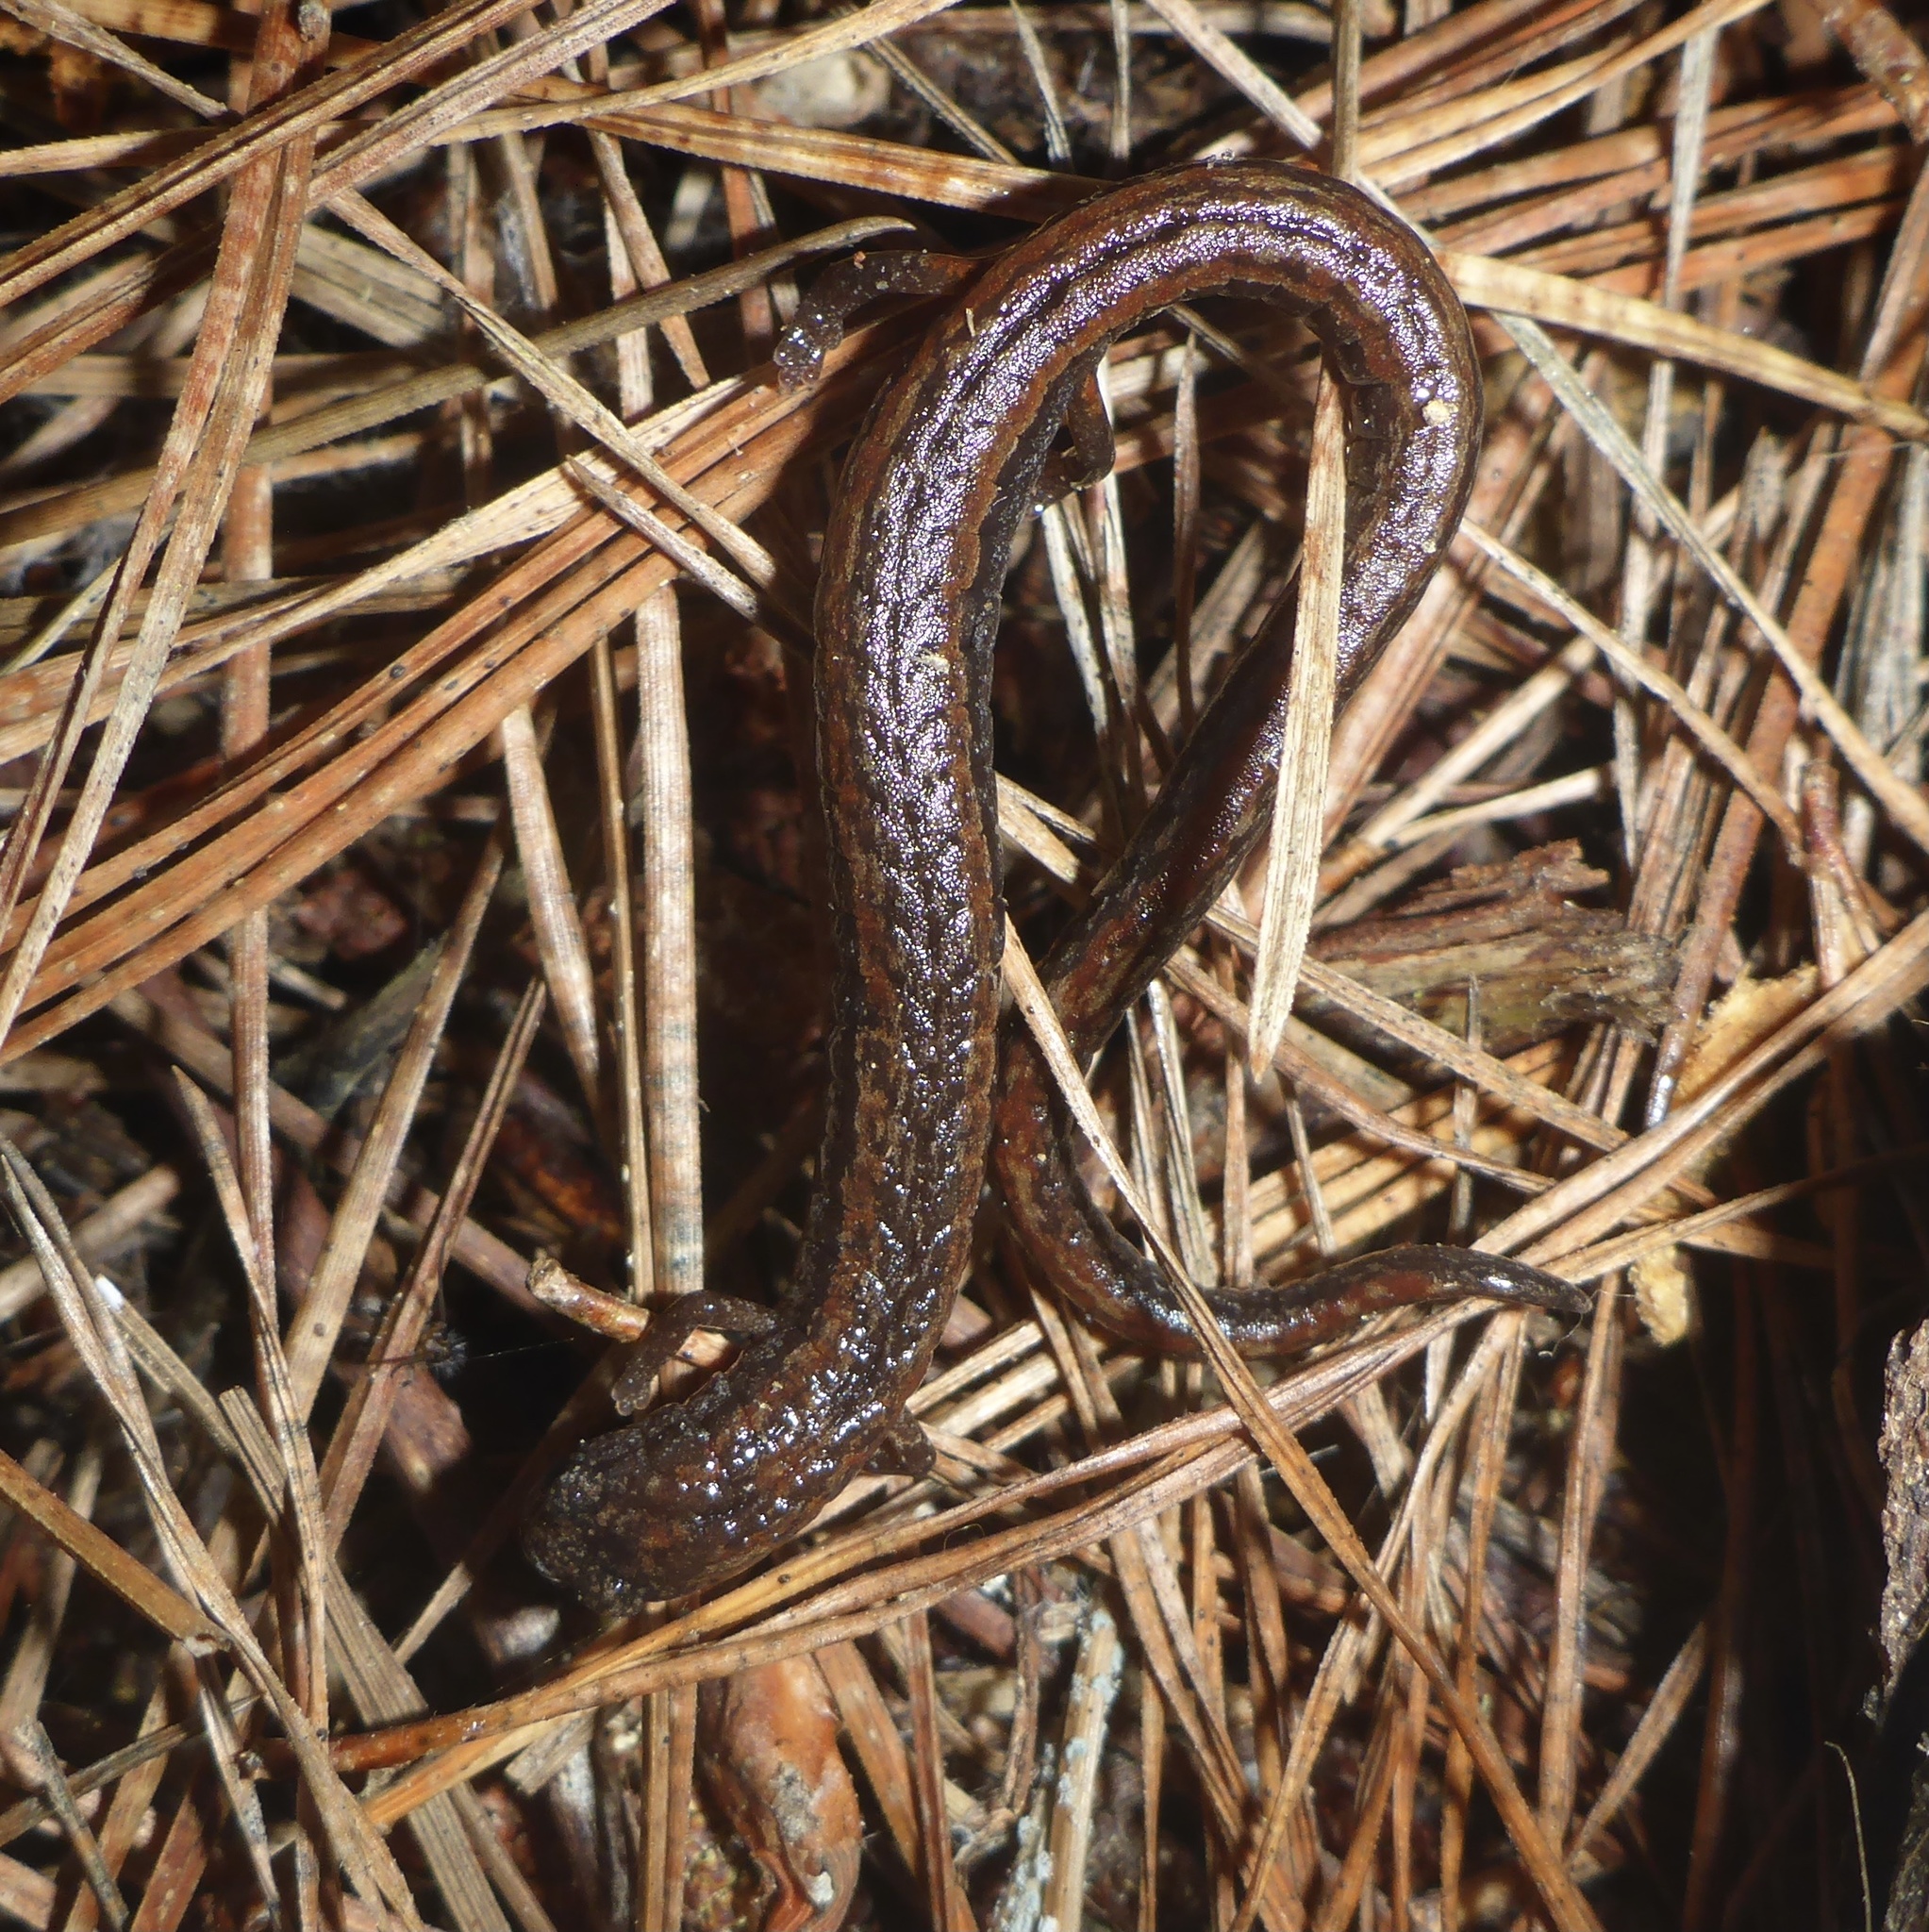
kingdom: Animalia
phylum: Chordata
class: Amphibia
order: Caudata
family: Plethodontidae
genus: Batrachoseps
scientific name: Batrachoseps attenuatus
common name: California slender salamander
